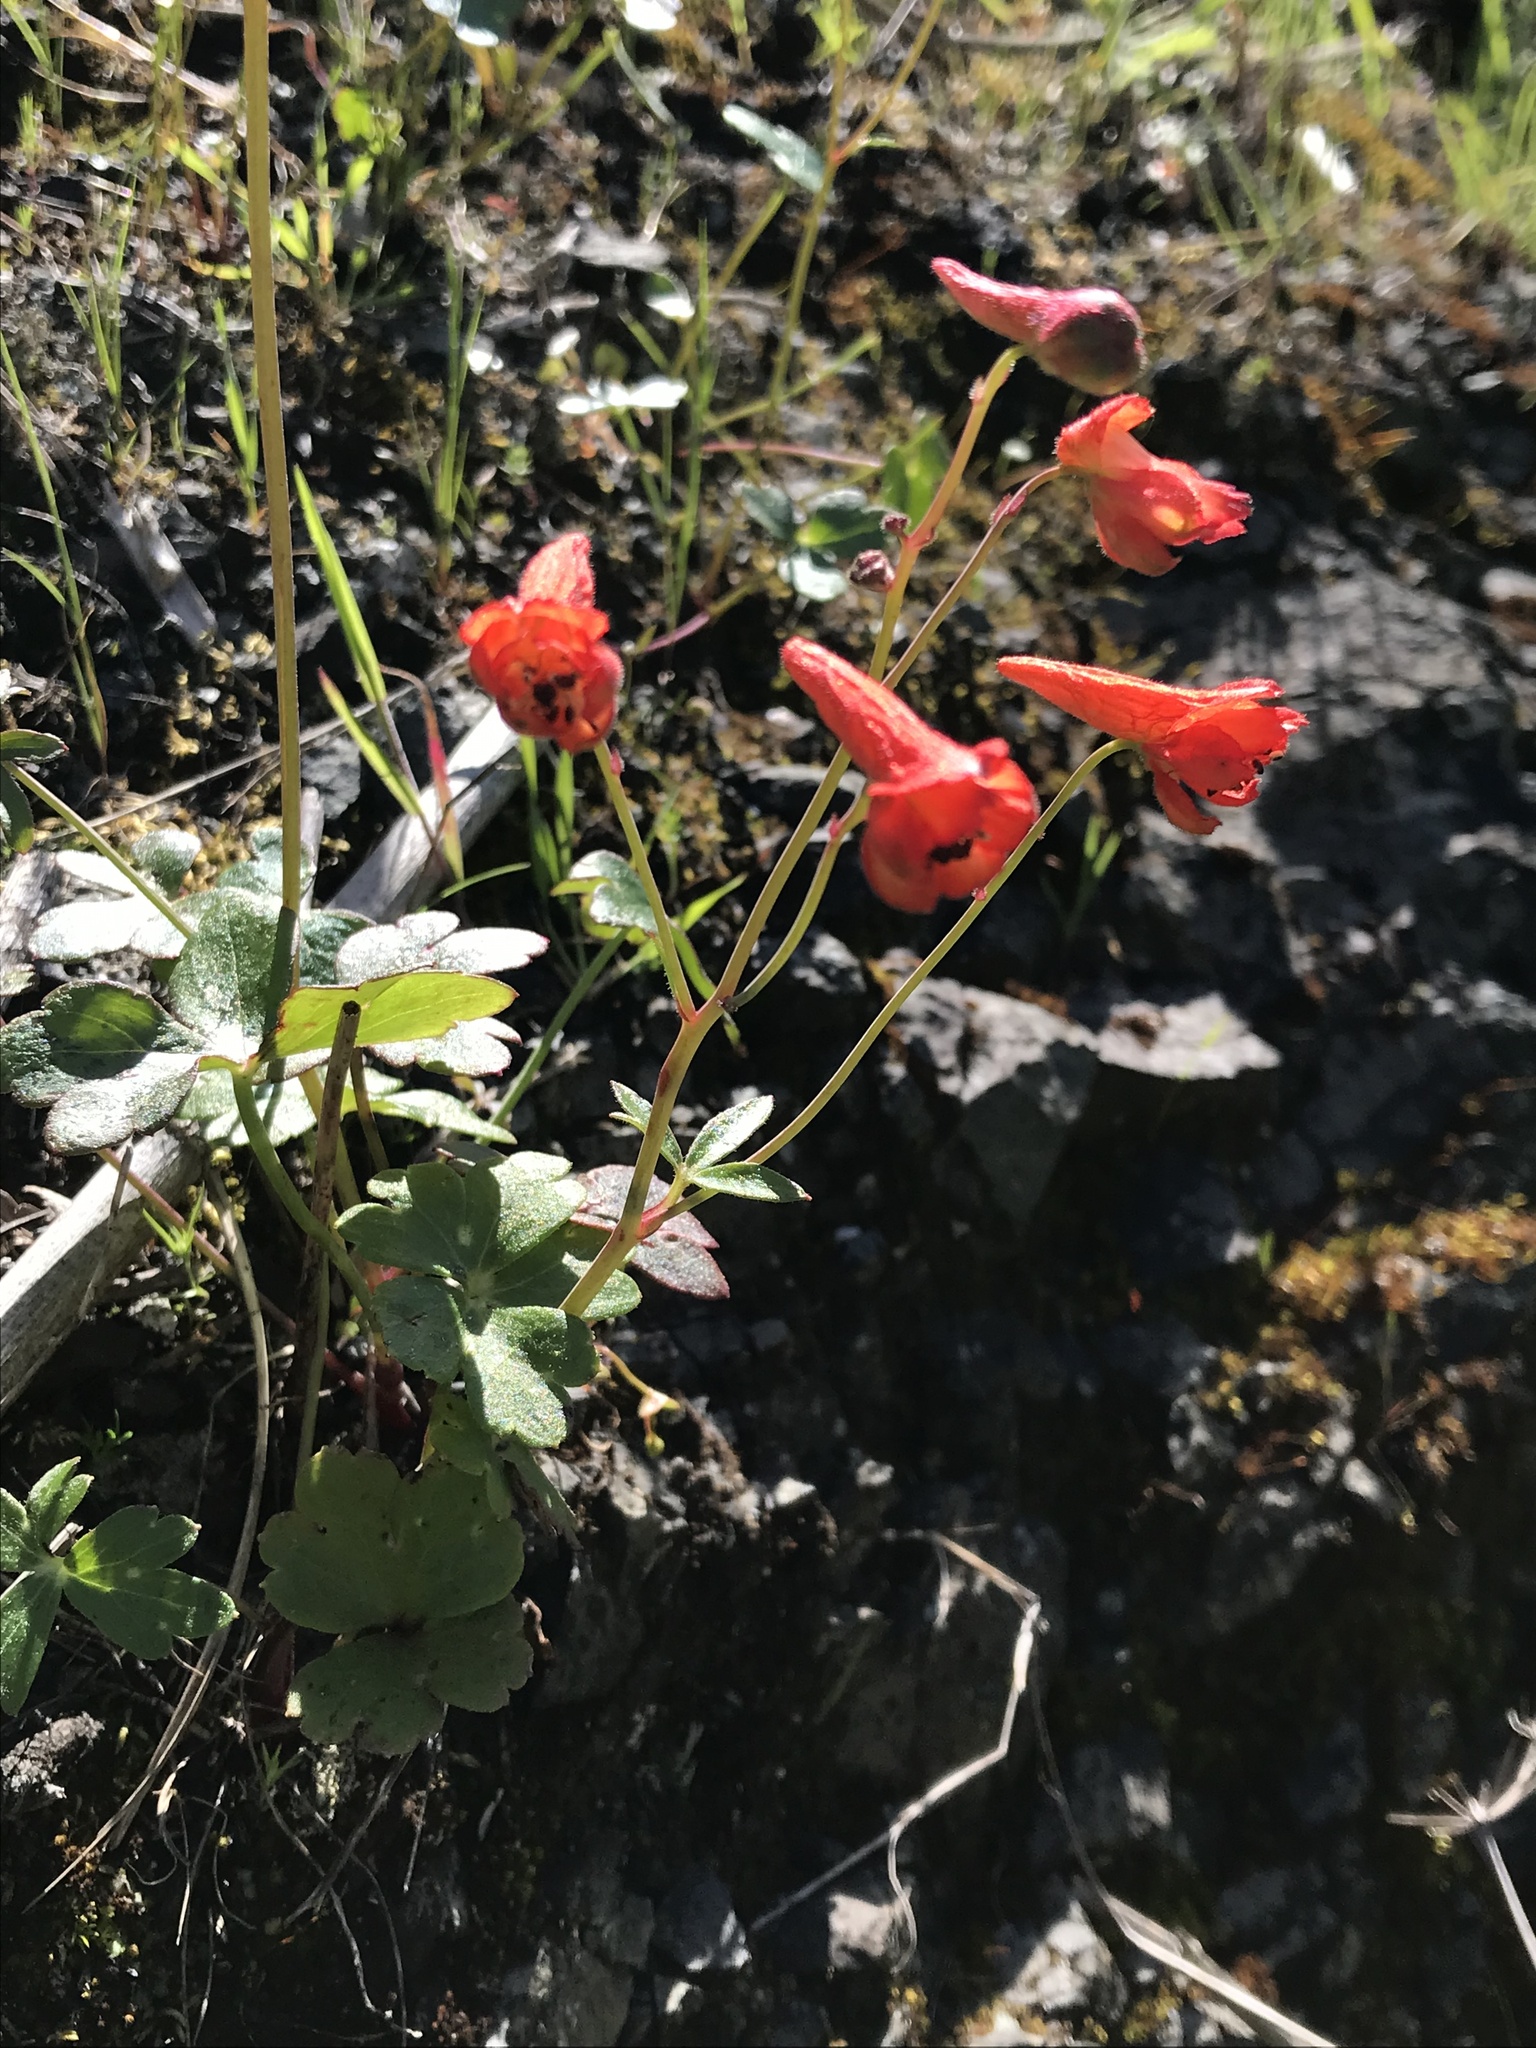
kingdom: Plantae
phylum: Tracheophyta
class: Magnoliopsida
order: Ranunculales
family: Ranunculaceae
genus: Delphinium
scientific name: Delphinium nudicaule
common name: Red larkspur
